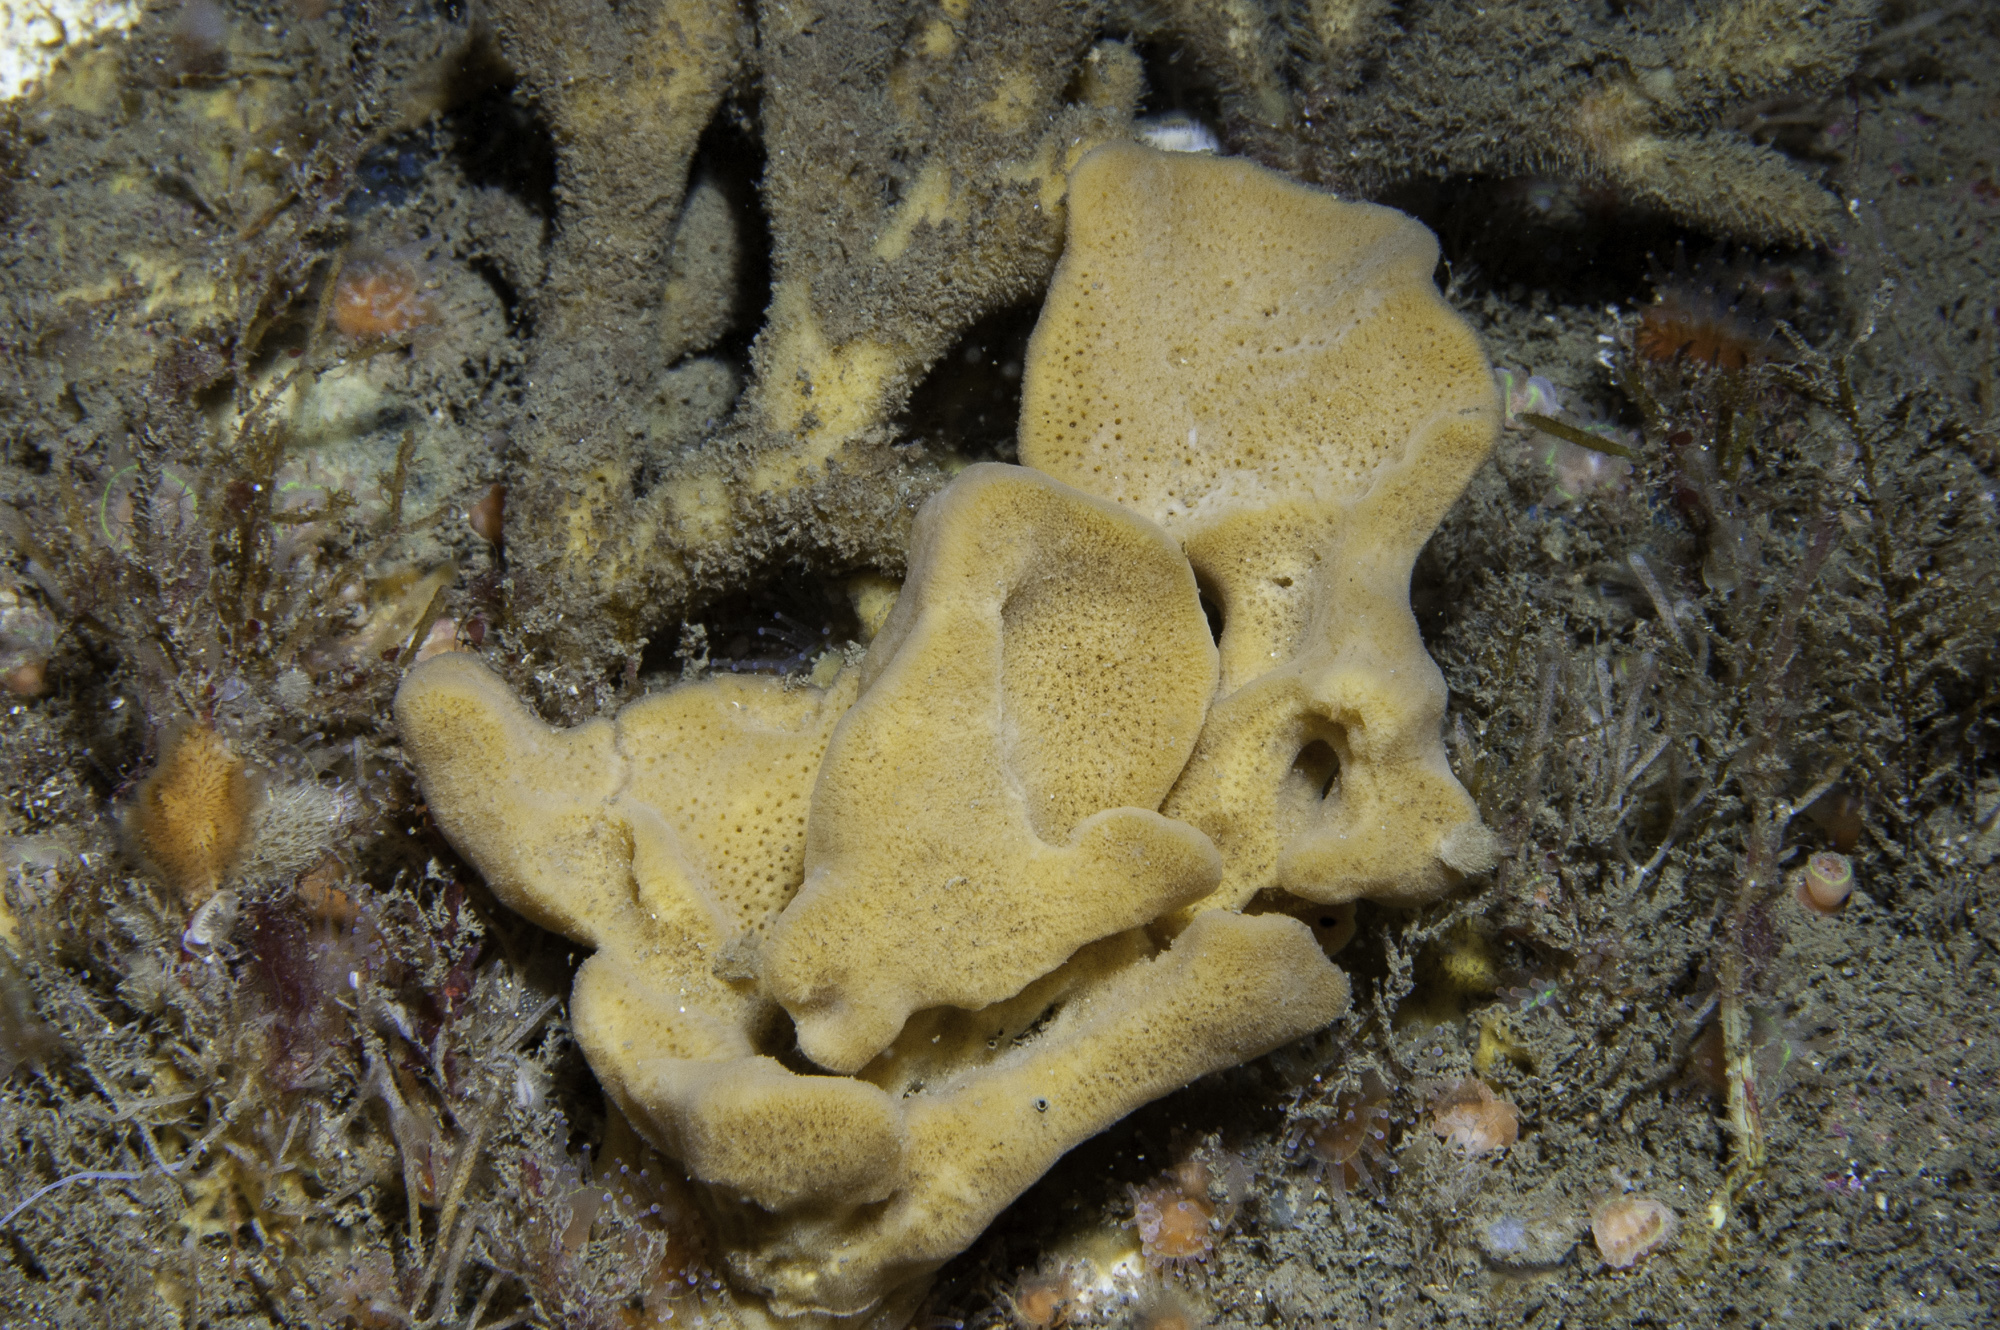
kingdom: Animalia
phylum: Porifera
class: Demospongiae
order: Axinellida
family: Axinellidae
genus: Axinella
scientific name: Axinella infundibuliformis
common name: North atlantic cup sponge
